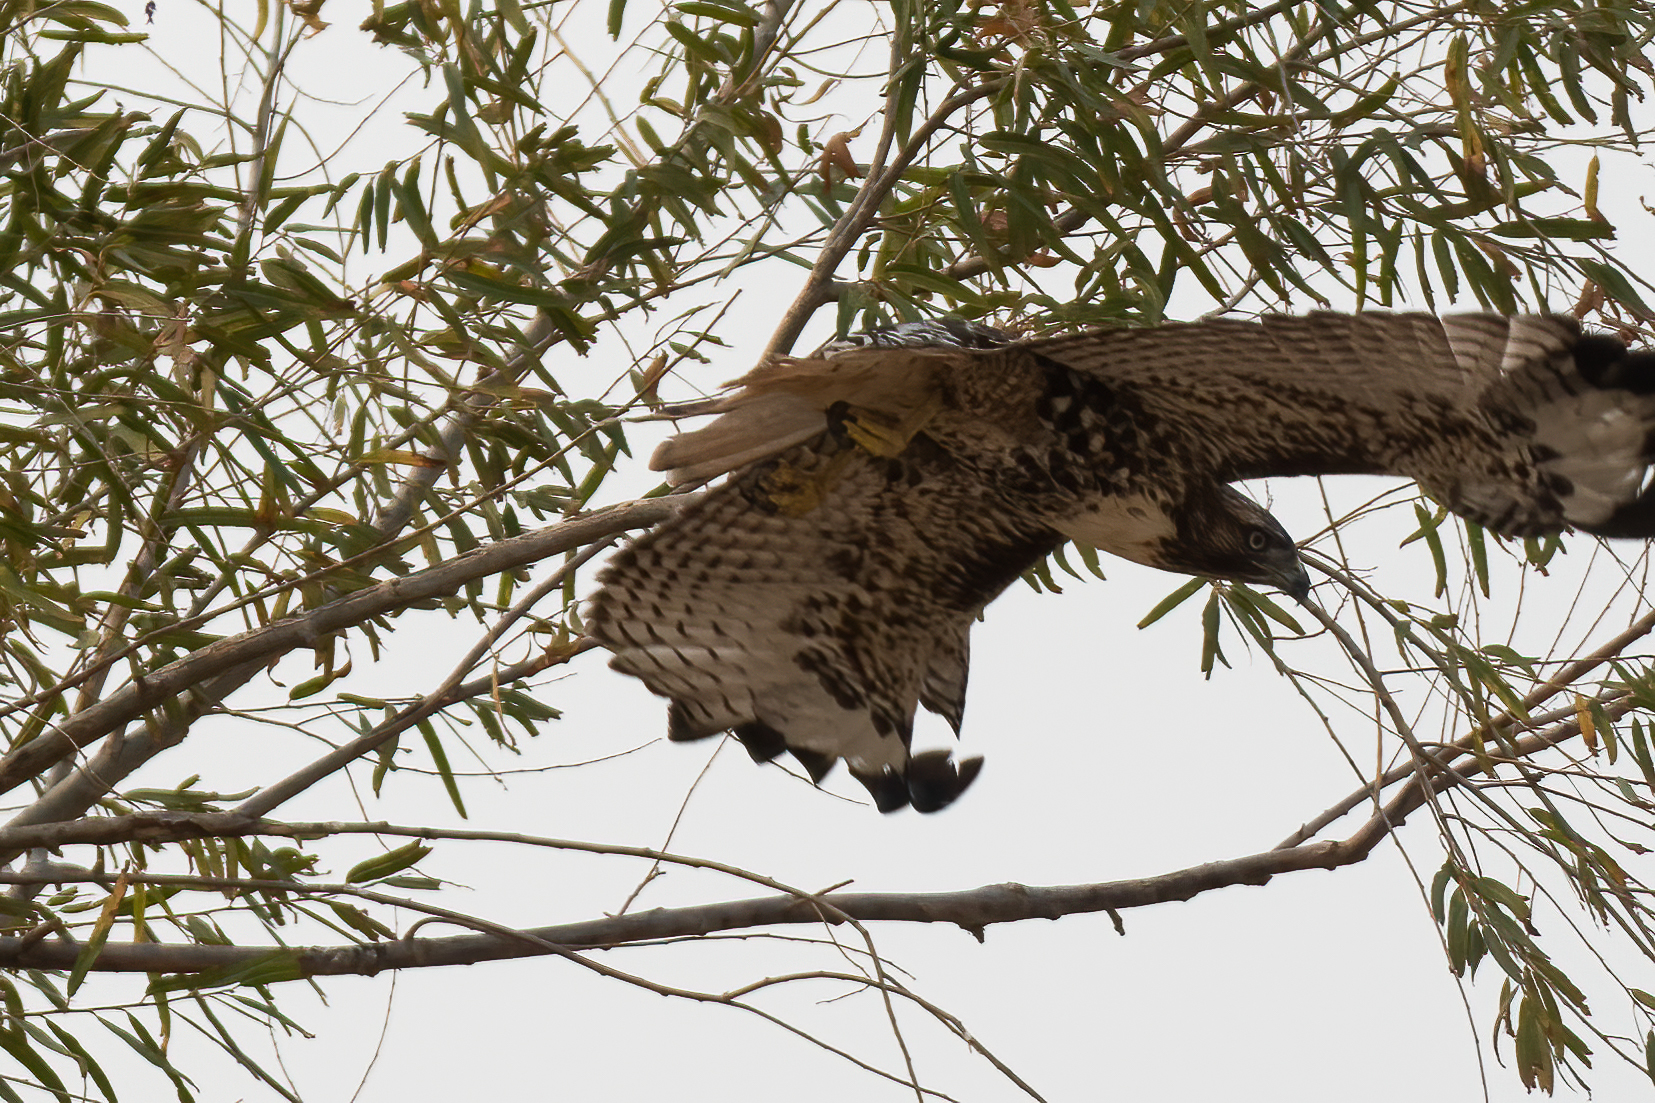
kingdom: Animalia
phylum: Chordata
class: Aves
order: Accipitriformes
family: Accipitridae
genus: Buteo
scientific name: Buteo jamaicensis
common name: Red-tailed hawk
